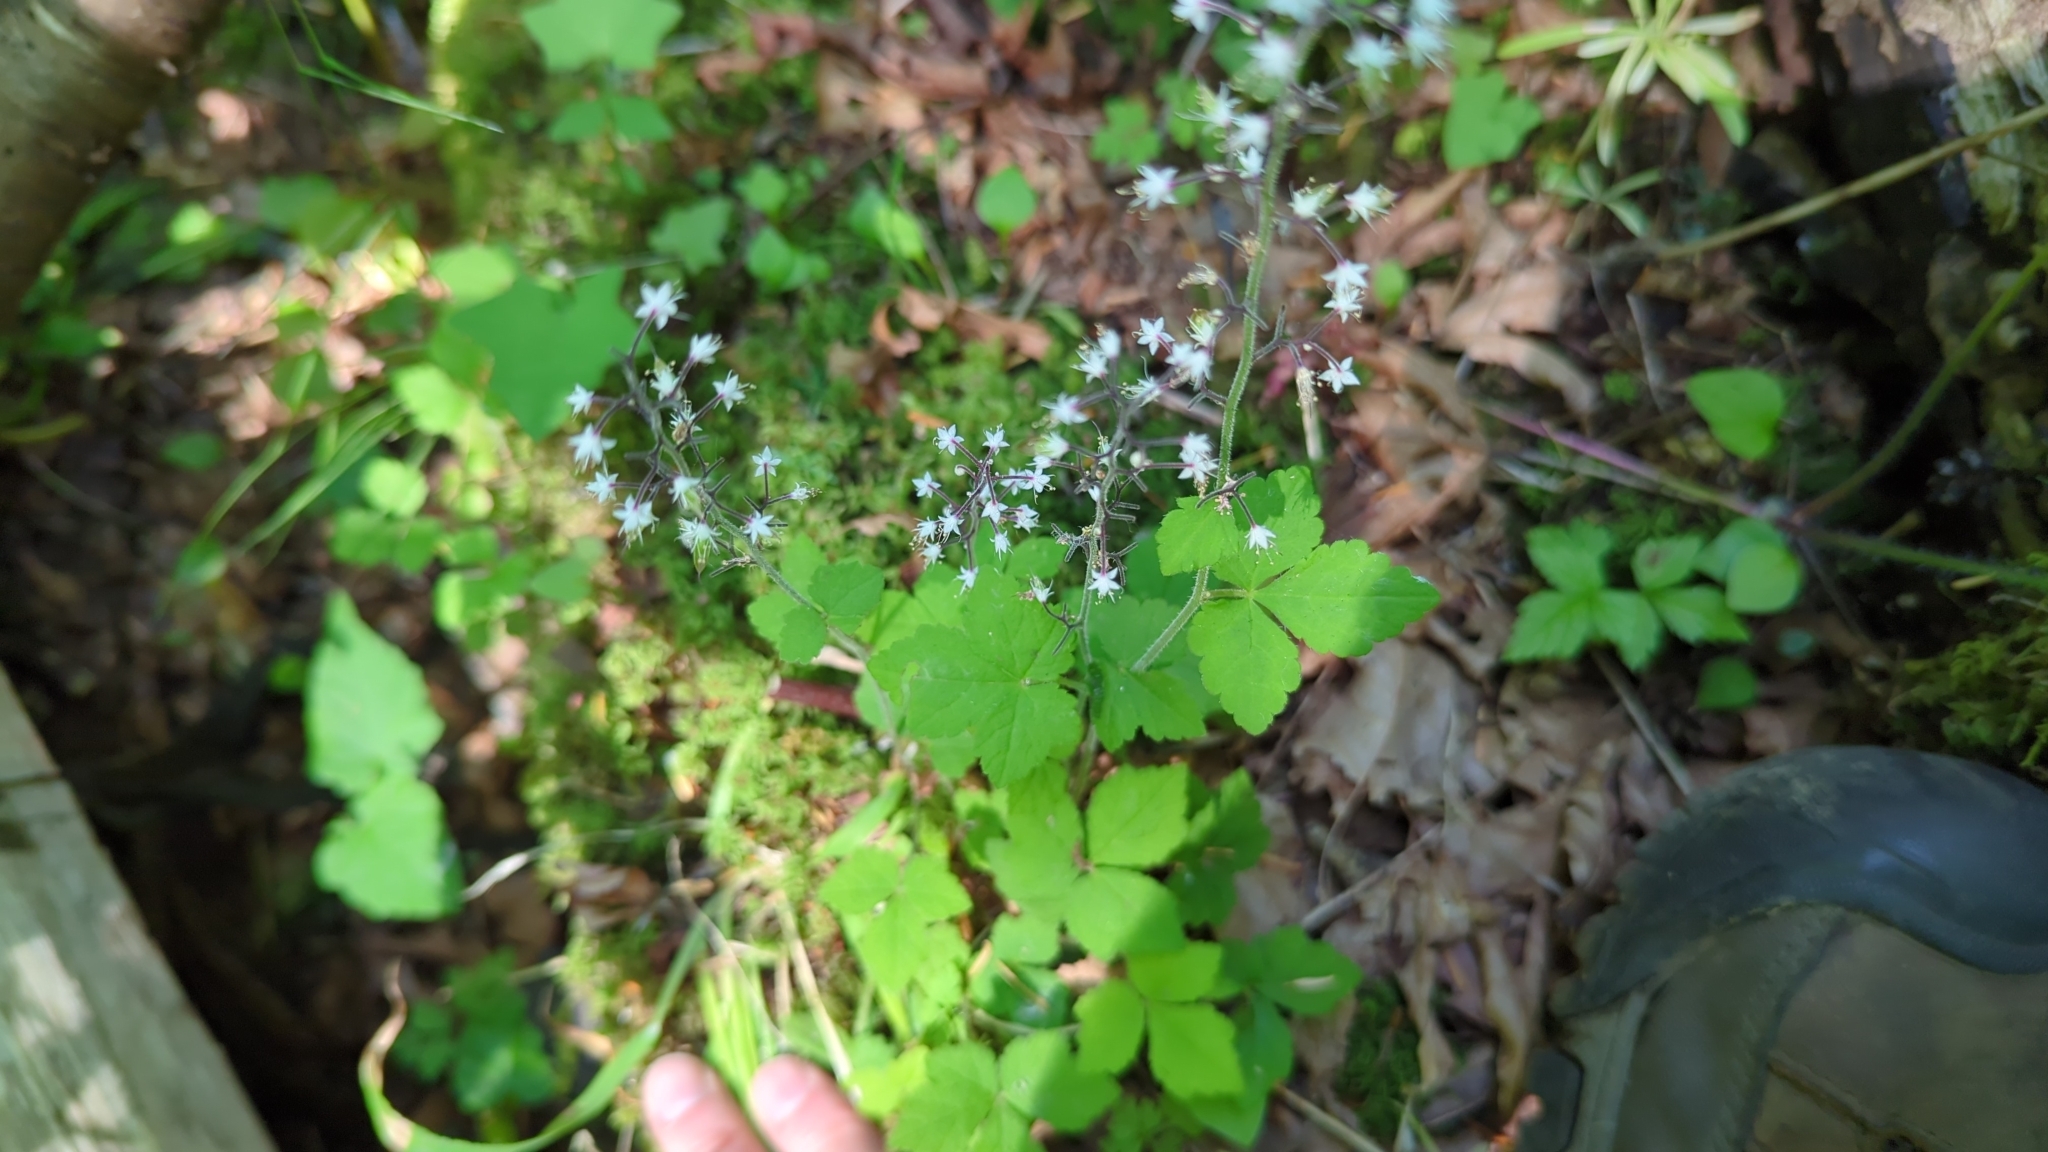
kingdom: Plantae
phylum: Tracheophyta
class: Magnoliopsida
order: Saxifragales
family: Saxifragaceae
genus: Tiarella
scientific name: Tiarella trifoliata
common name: Sugar-scoop
